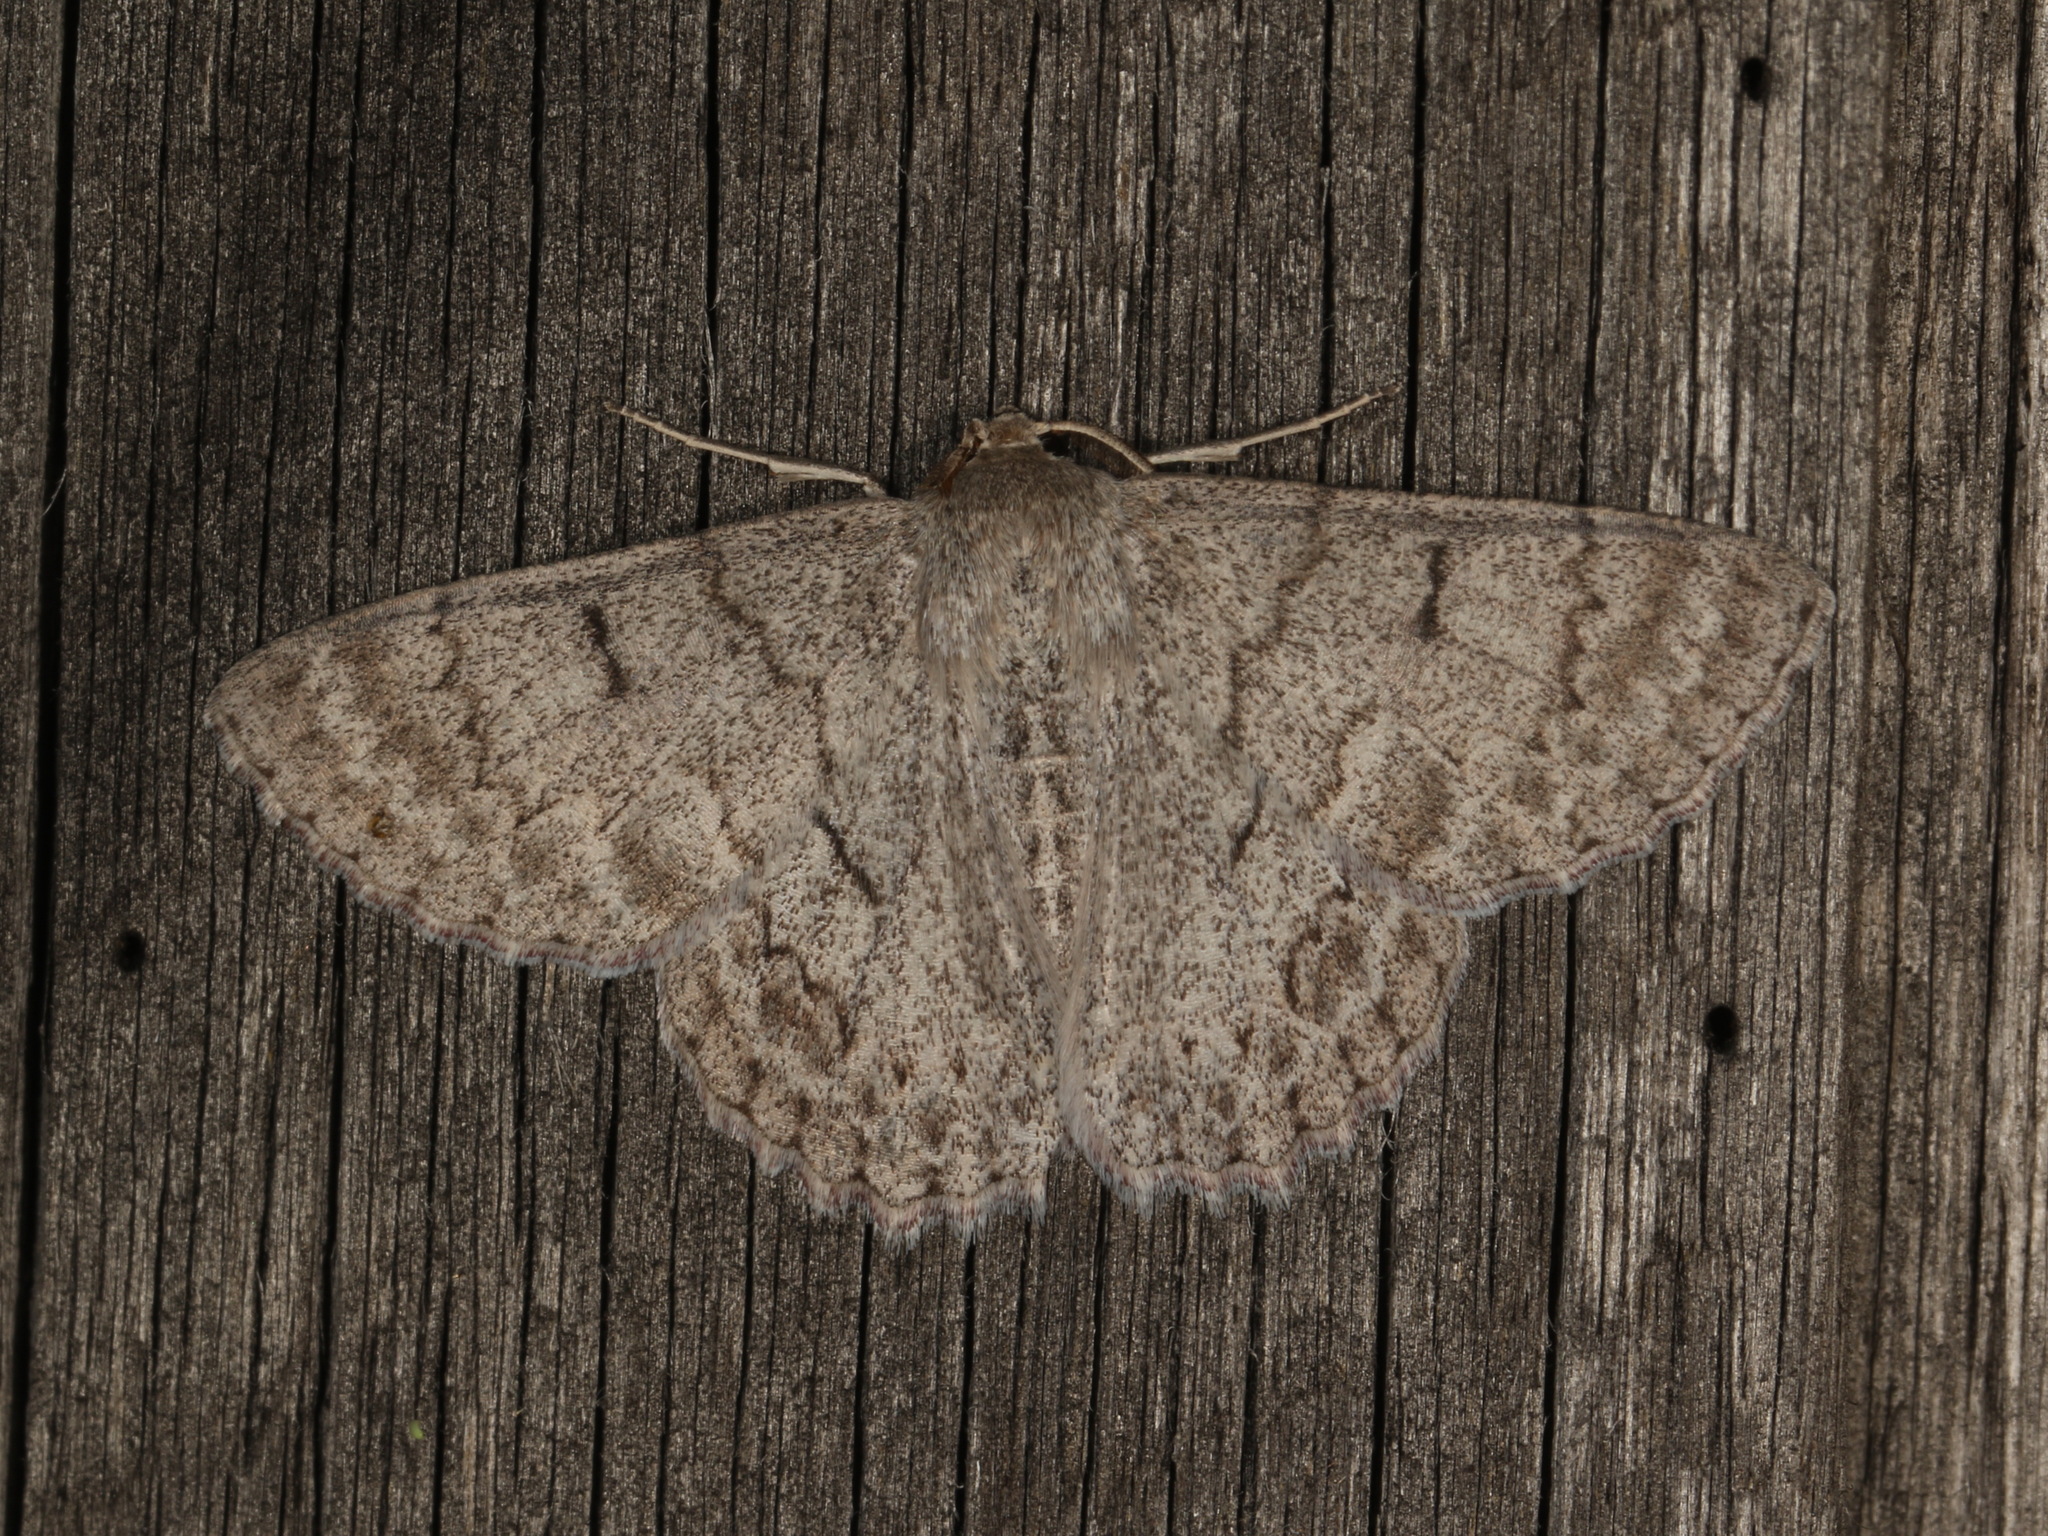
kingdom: Animalia
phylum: Arthropoda
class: Insecta
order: Lepidoptera
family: Geometridae
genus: Crypsiphona
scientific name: Crypsiphona ocultaria
